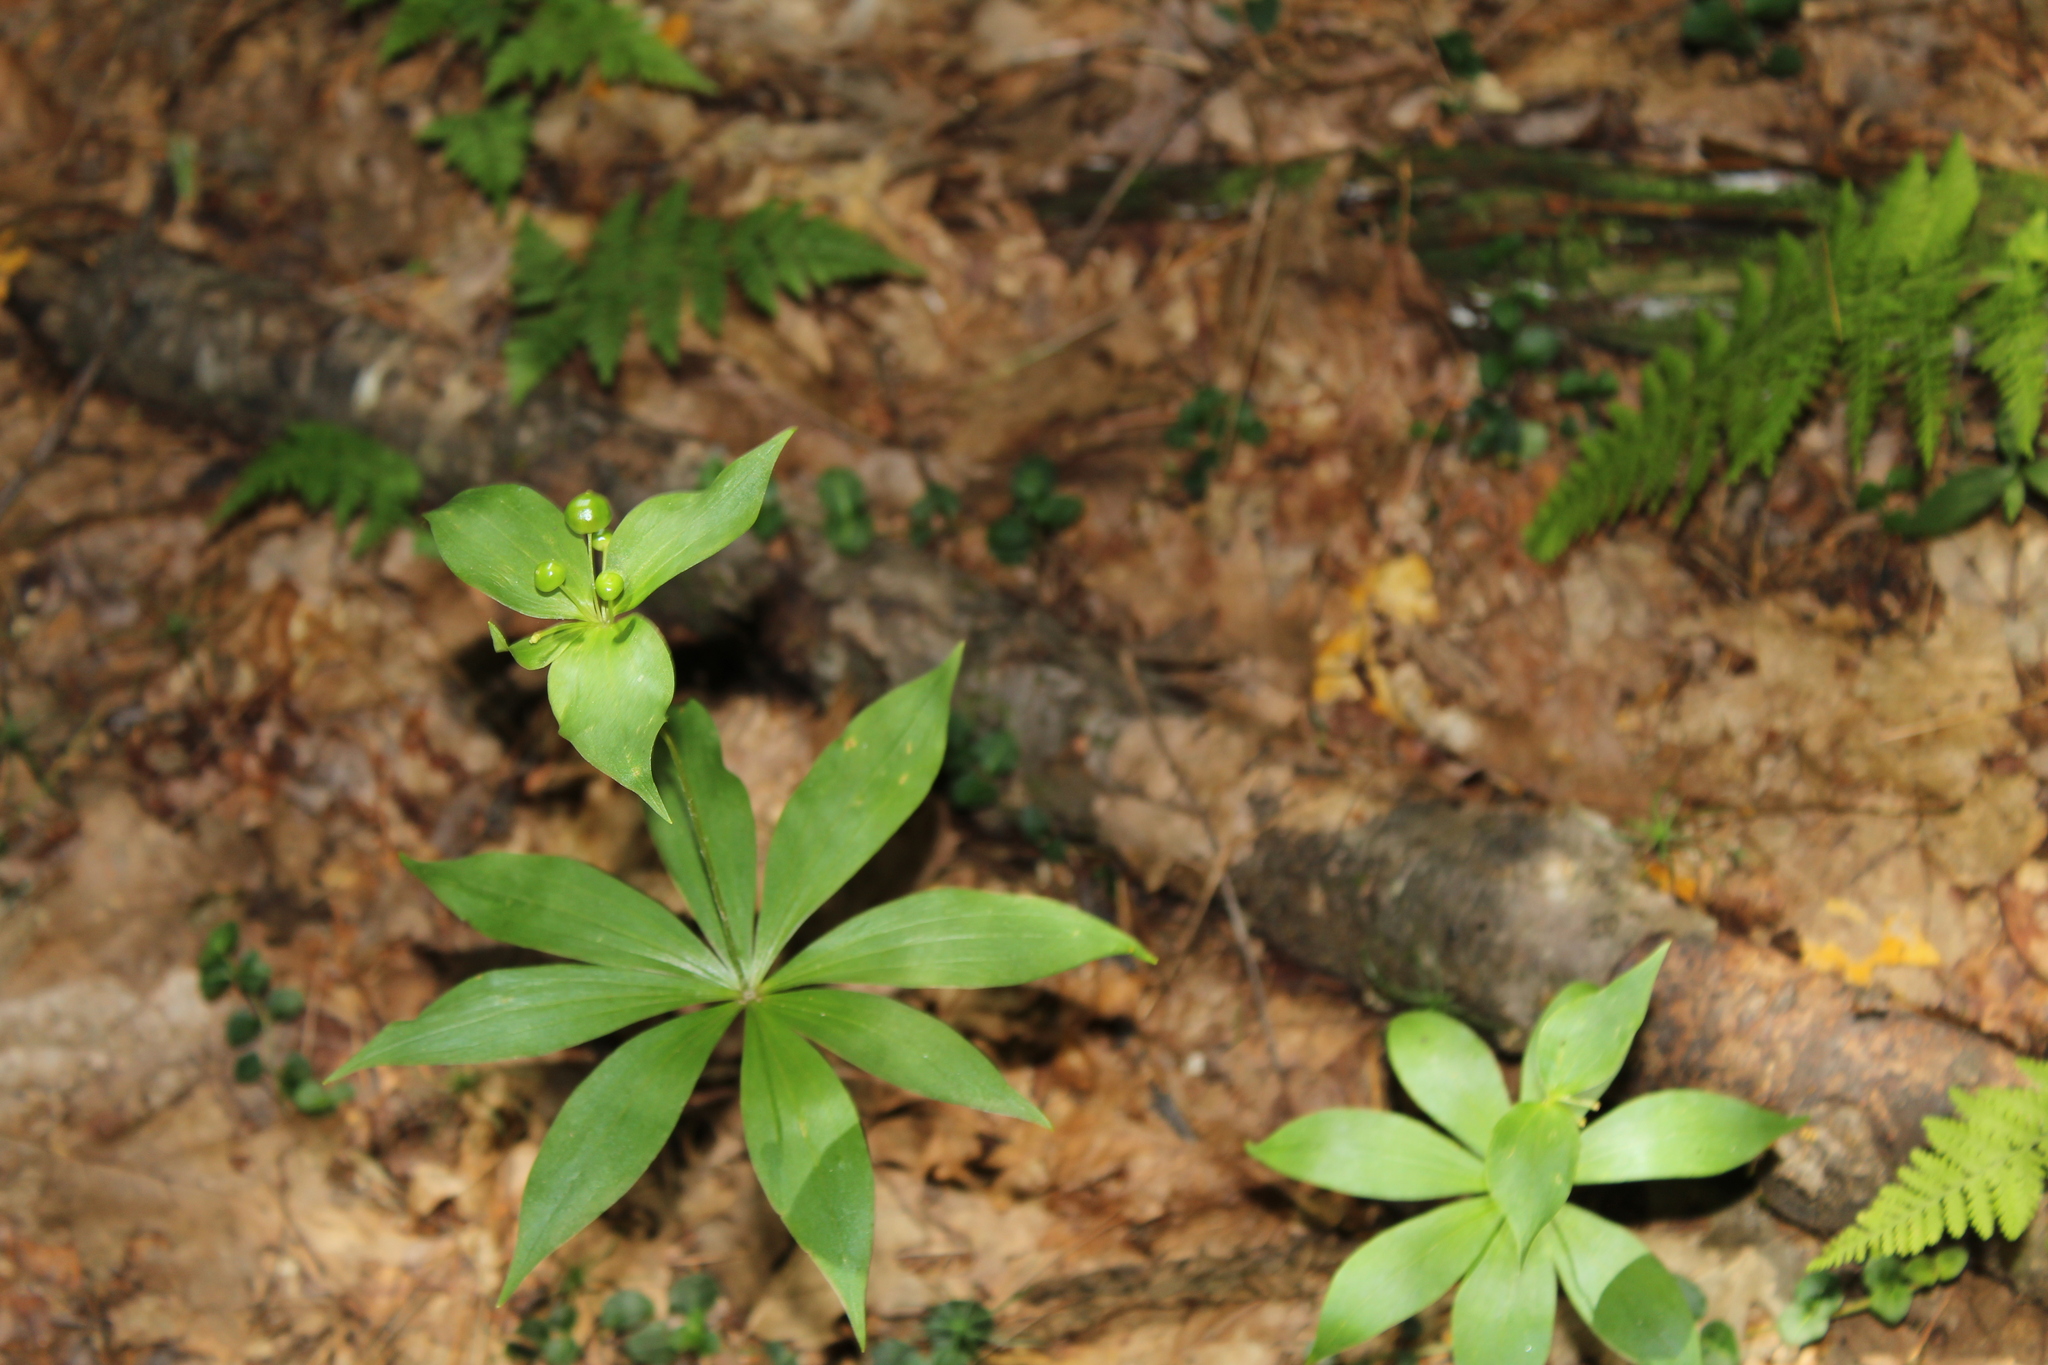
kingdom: Plantae
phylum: Tracheophyta
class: Liliopsida
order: Liliales
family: Liliaceae
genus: Medeola
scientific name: Medeola virginiana
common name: Indian cucumber-root
